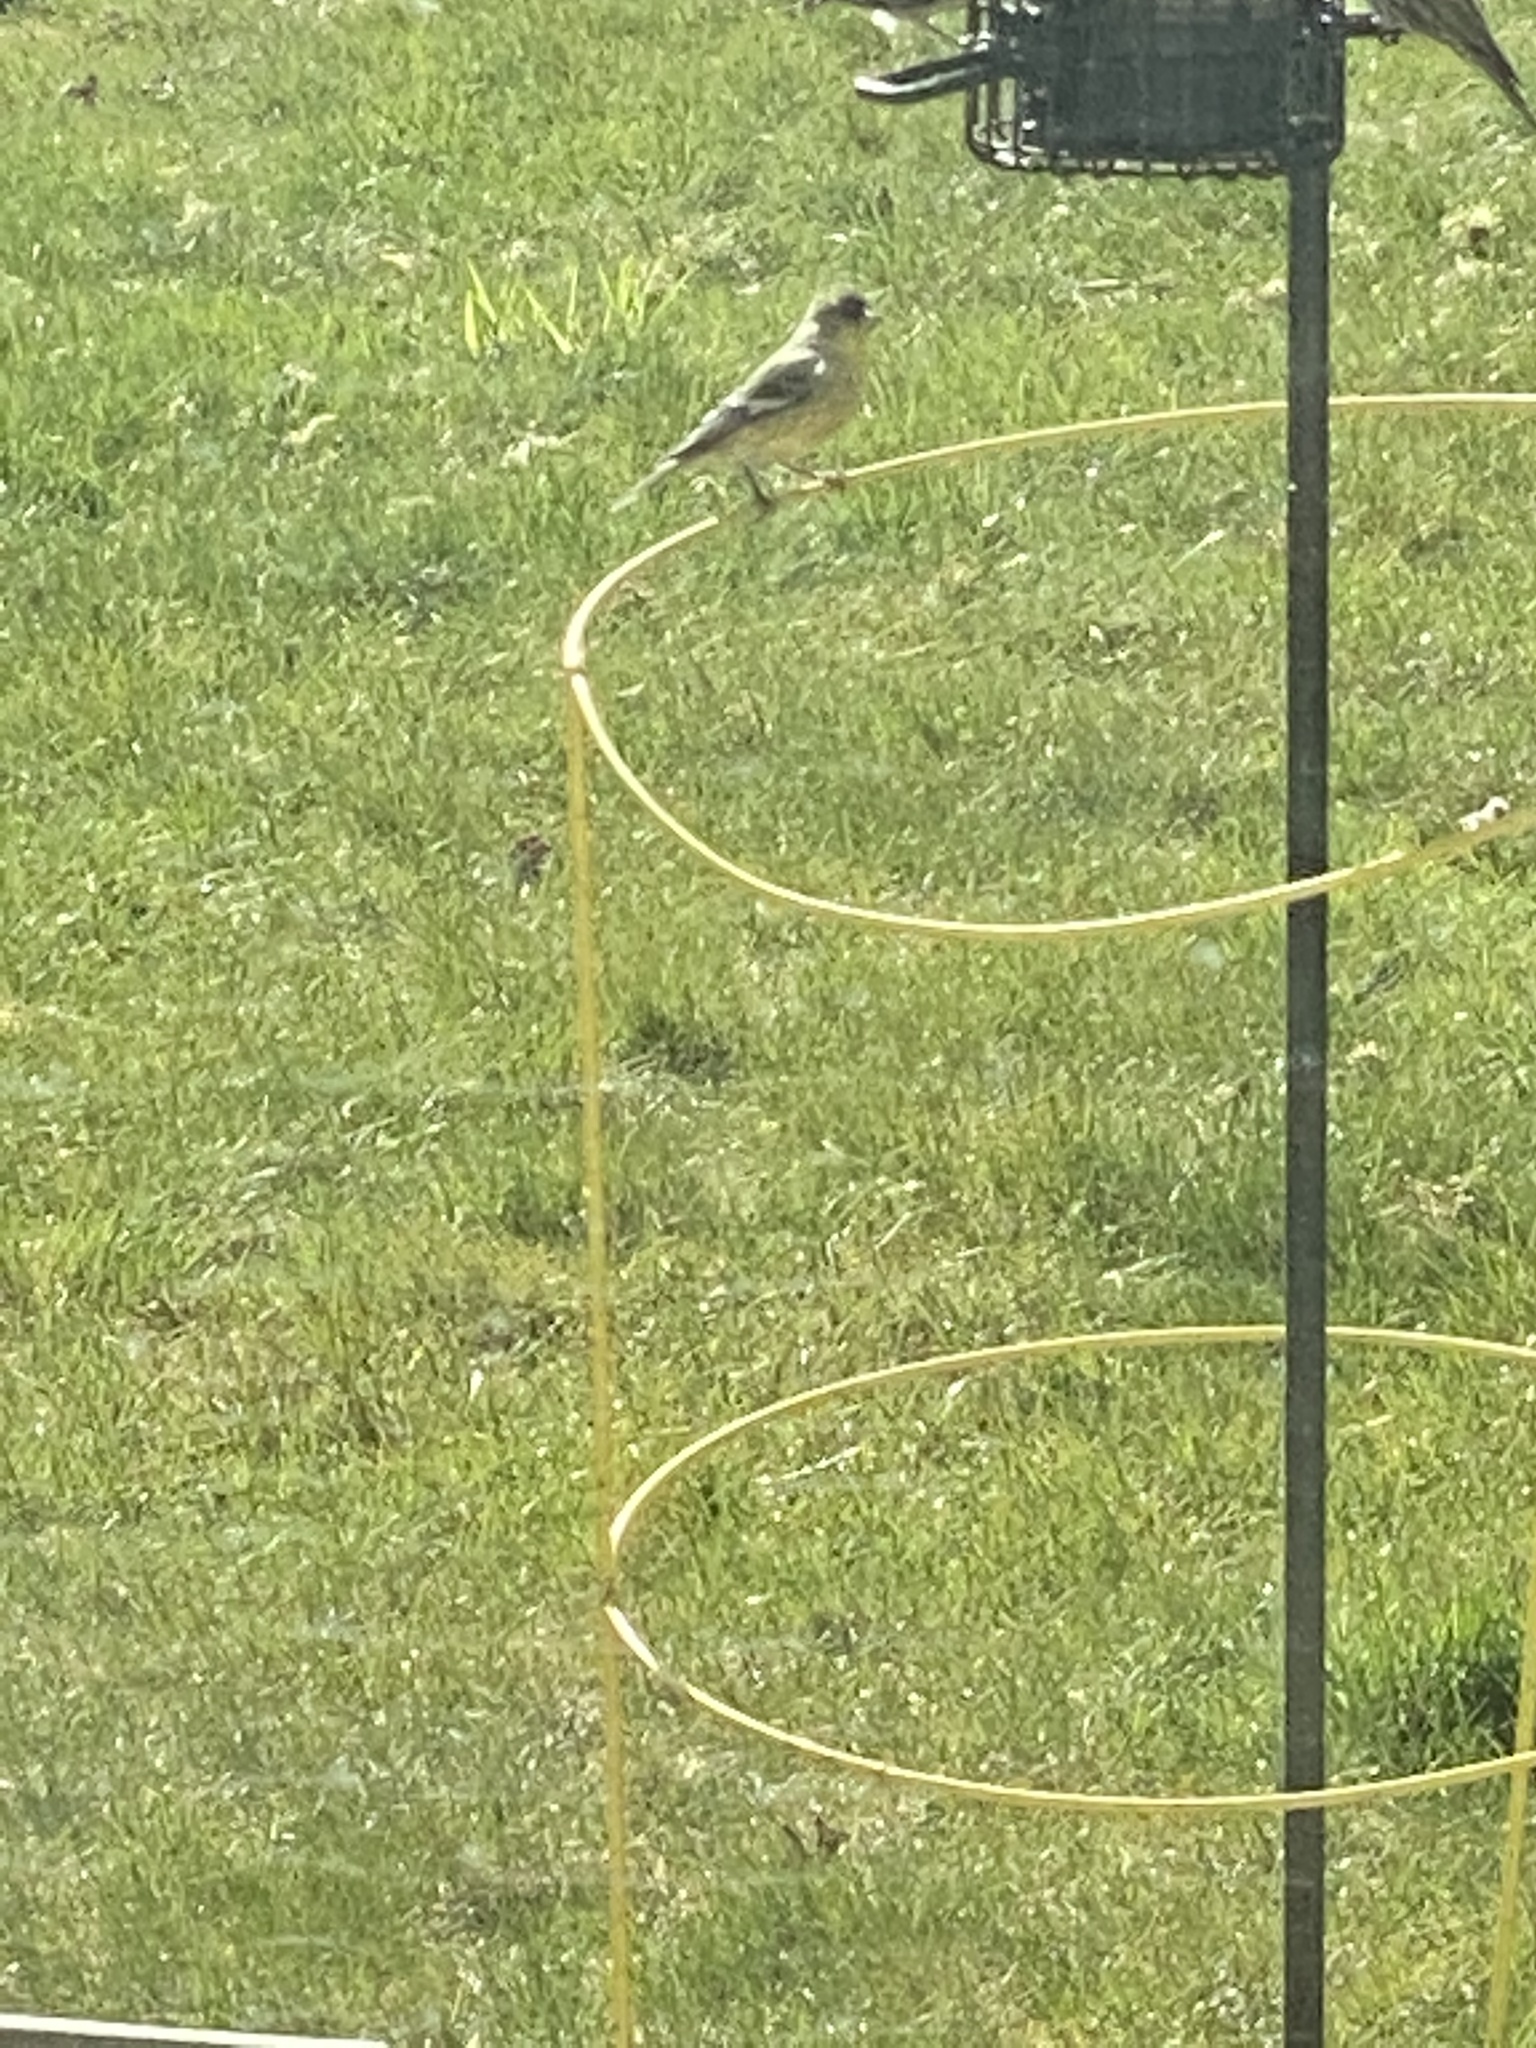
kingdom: Animalia
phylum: Chordata
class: Aves
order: Passeriformes
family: Fringillidae
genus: Spinus
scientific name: Spinus psaltria
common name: Lesser goldfinch
